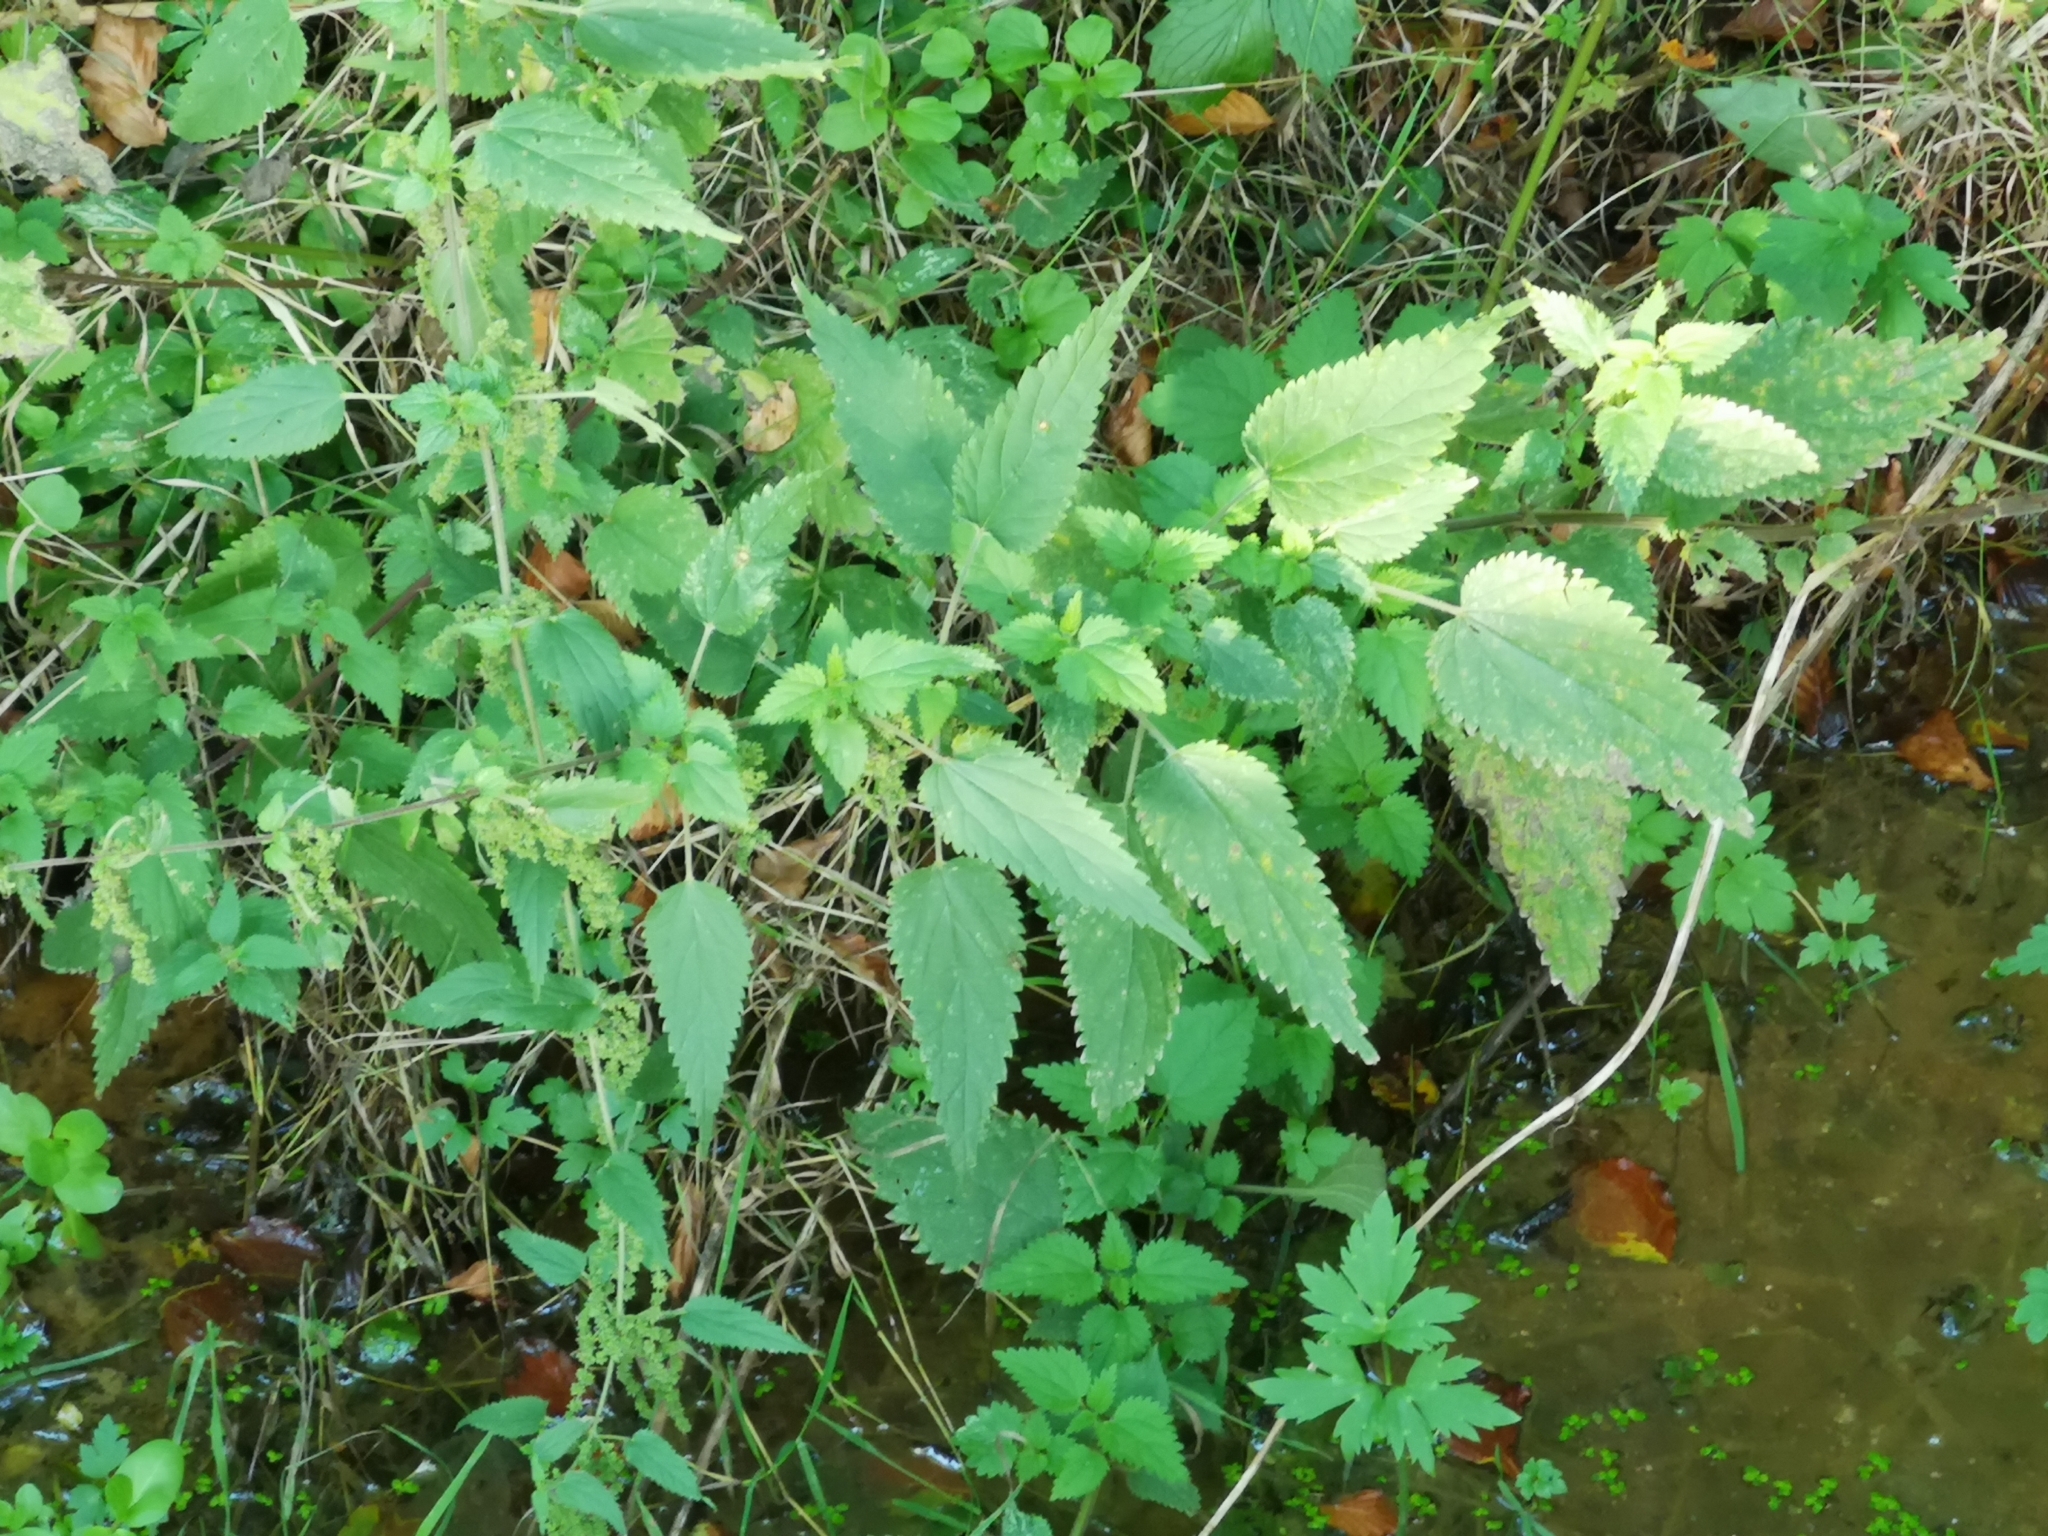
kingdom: Plantae
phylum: Tracheophyta
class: Magnoliopsida
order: Rosales
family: Urticaceae
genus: Urtica
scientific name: Urtica dioica
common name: Common nettle
